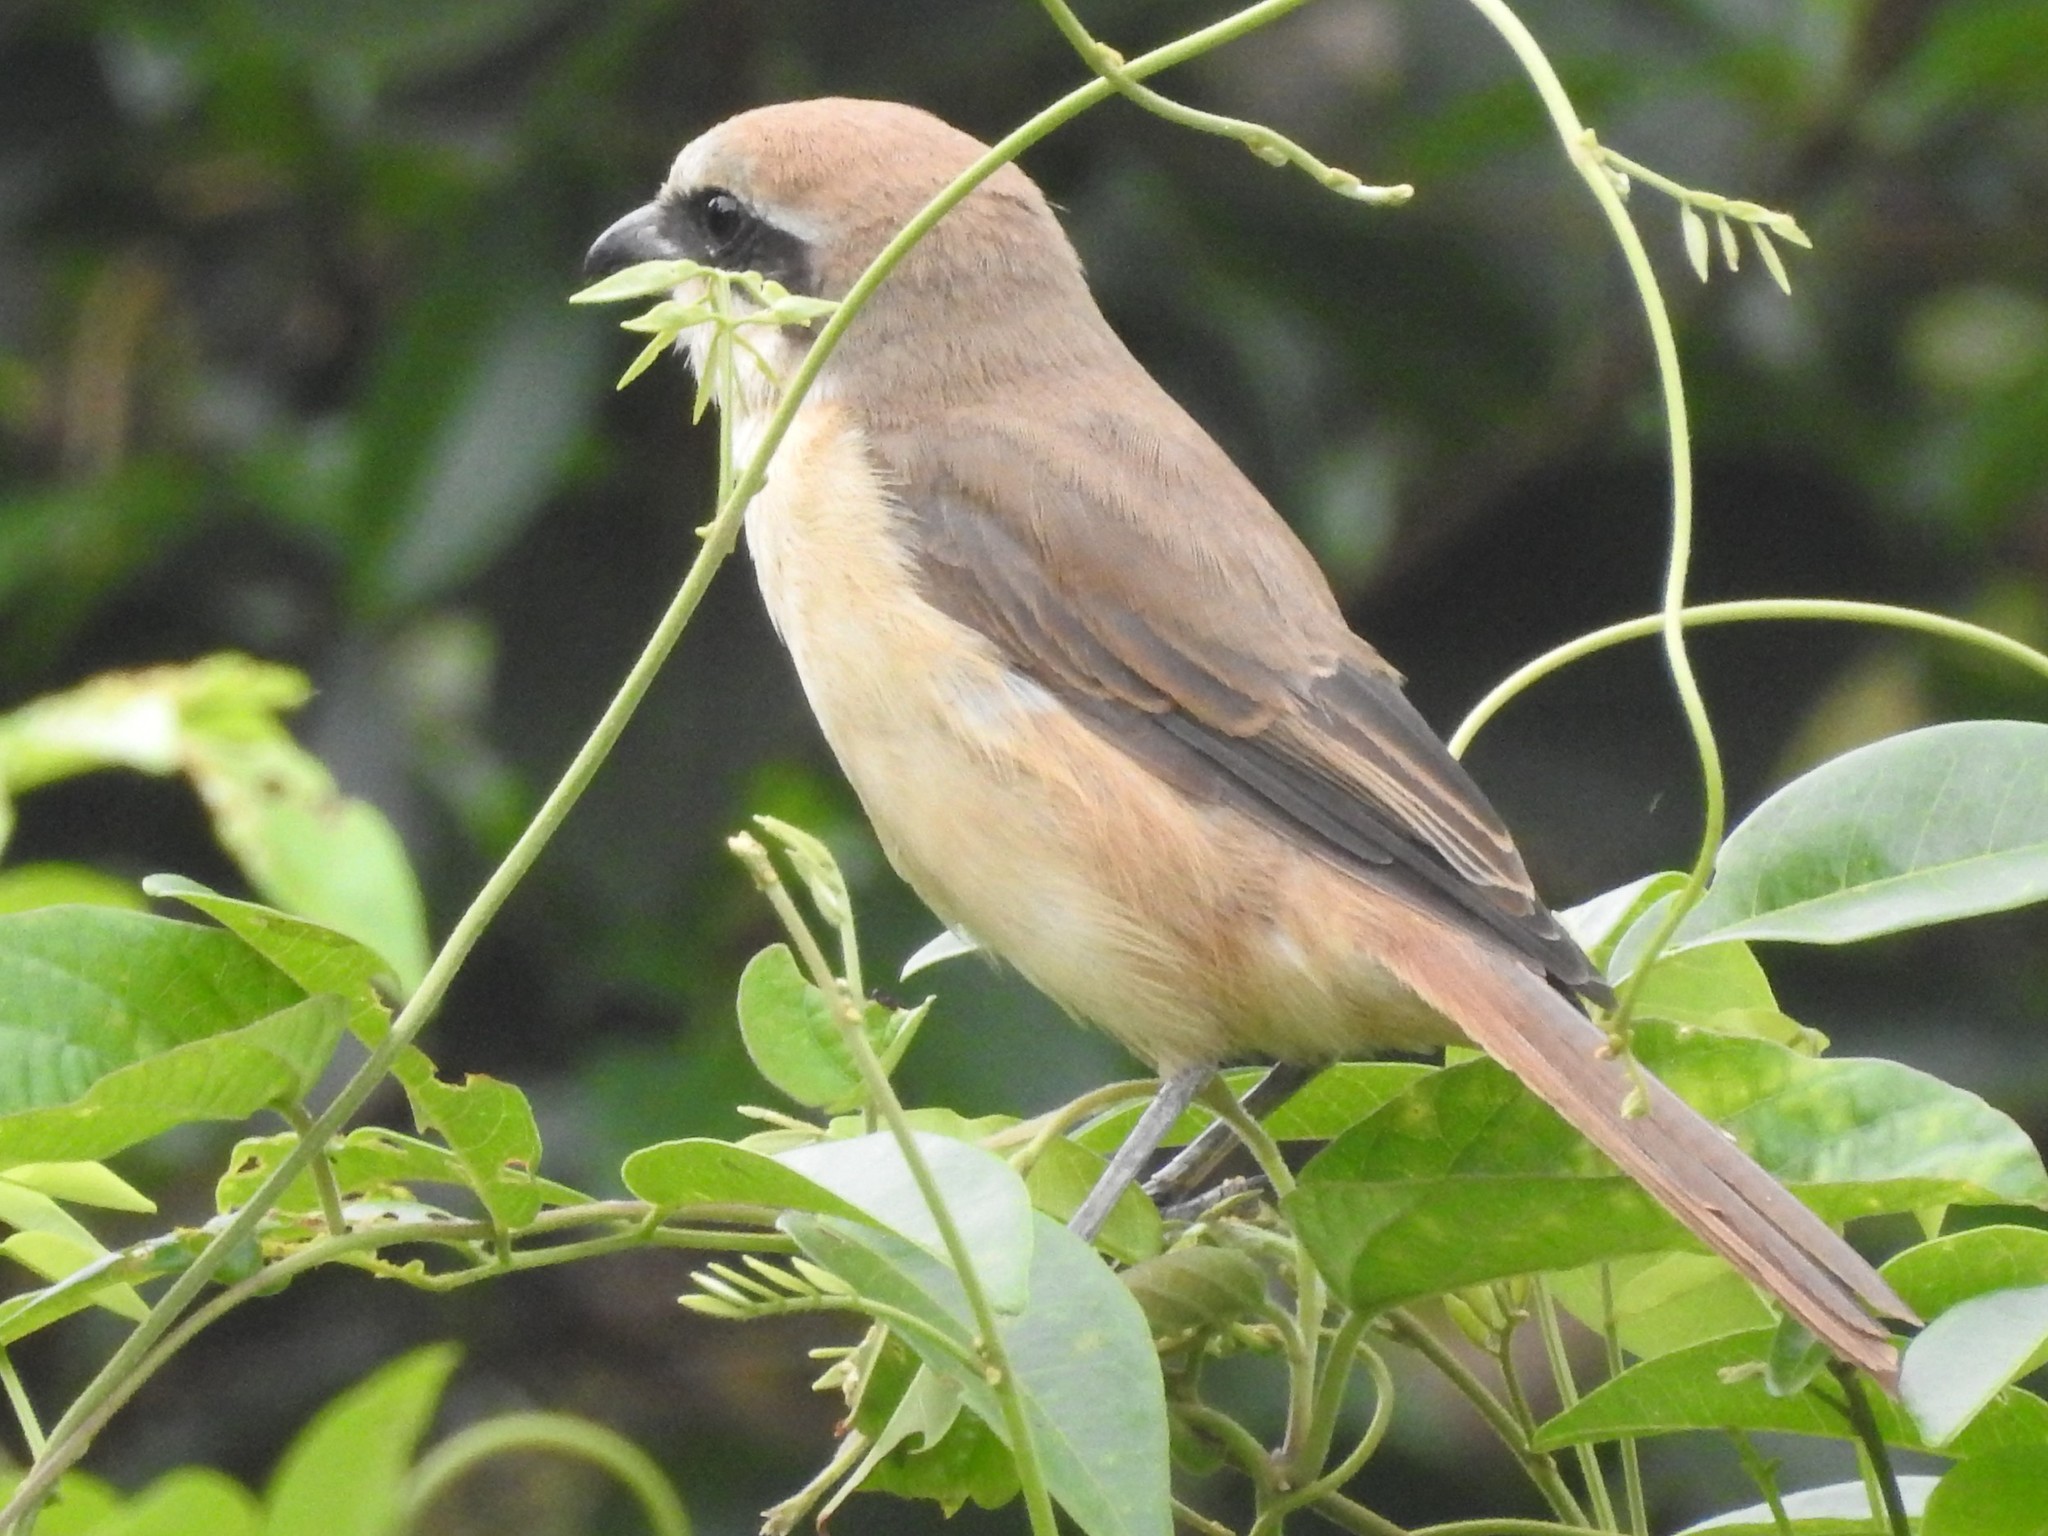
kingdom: Animalia
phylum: Chordata
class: Aves
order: Passeriformes
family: Laniidae
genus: Lanius
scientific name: Lanius schach
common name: Long-tailed shrike
